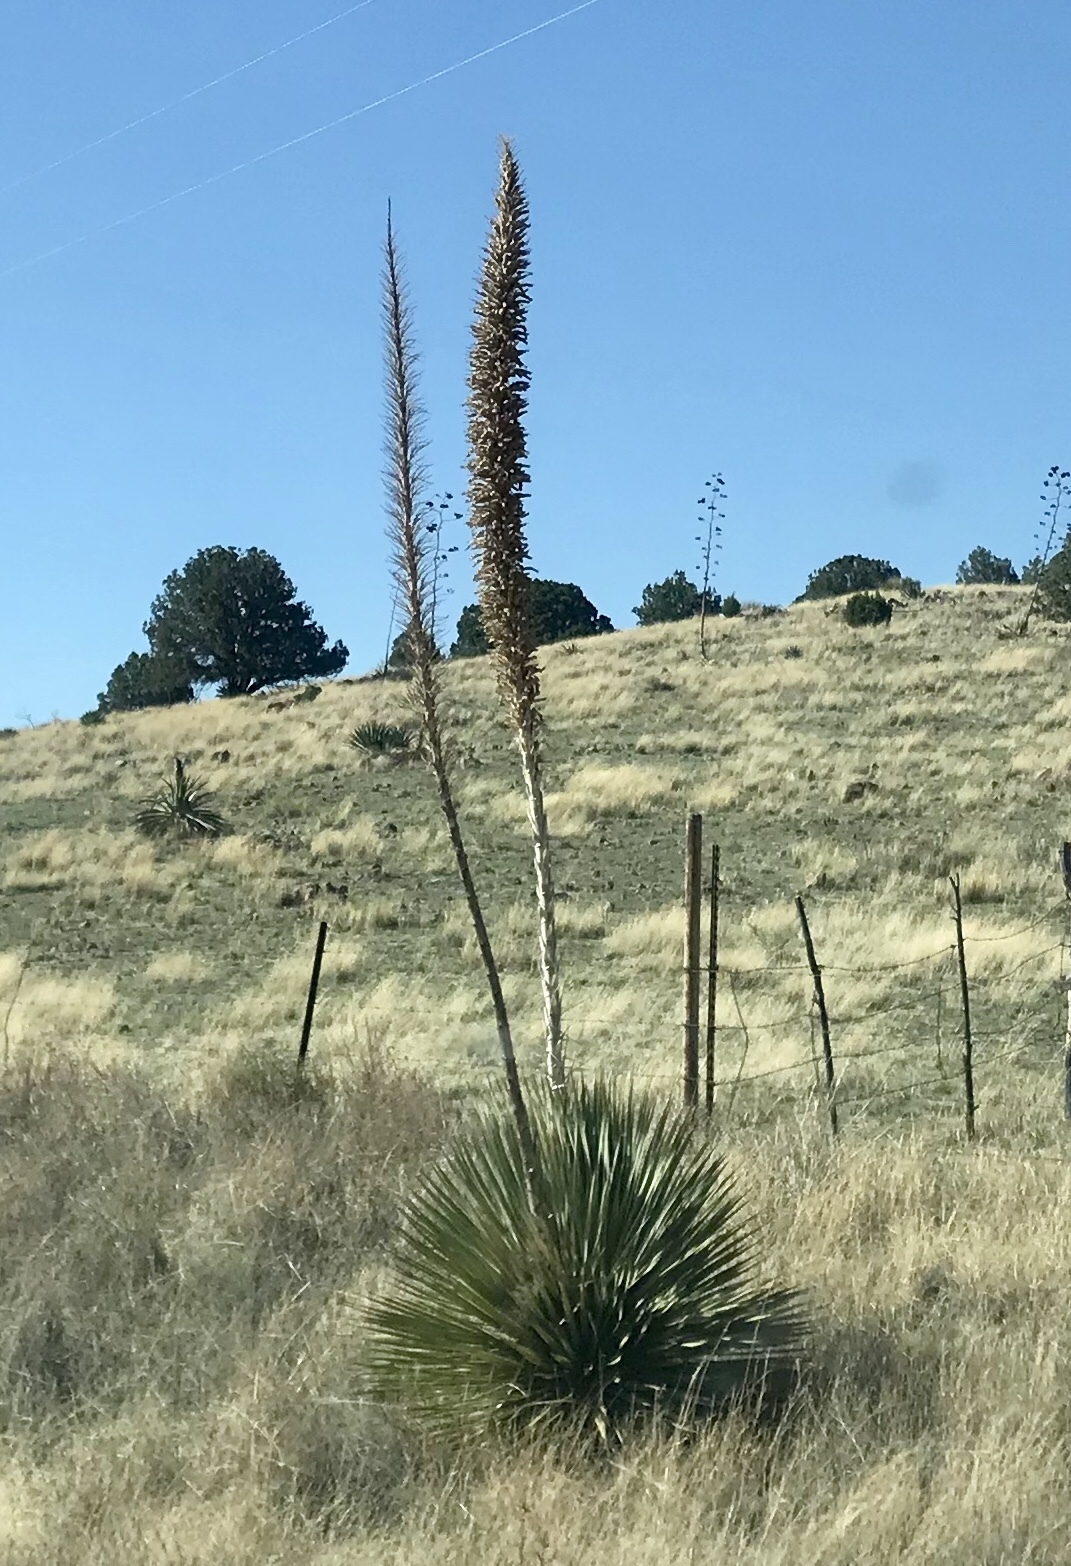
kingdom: Plantae
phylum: Tracheophyta
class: Liliopsida
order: Asparagales
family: Asparagaceae
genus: Dasylirion
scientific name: Dasylirion wheeleri
